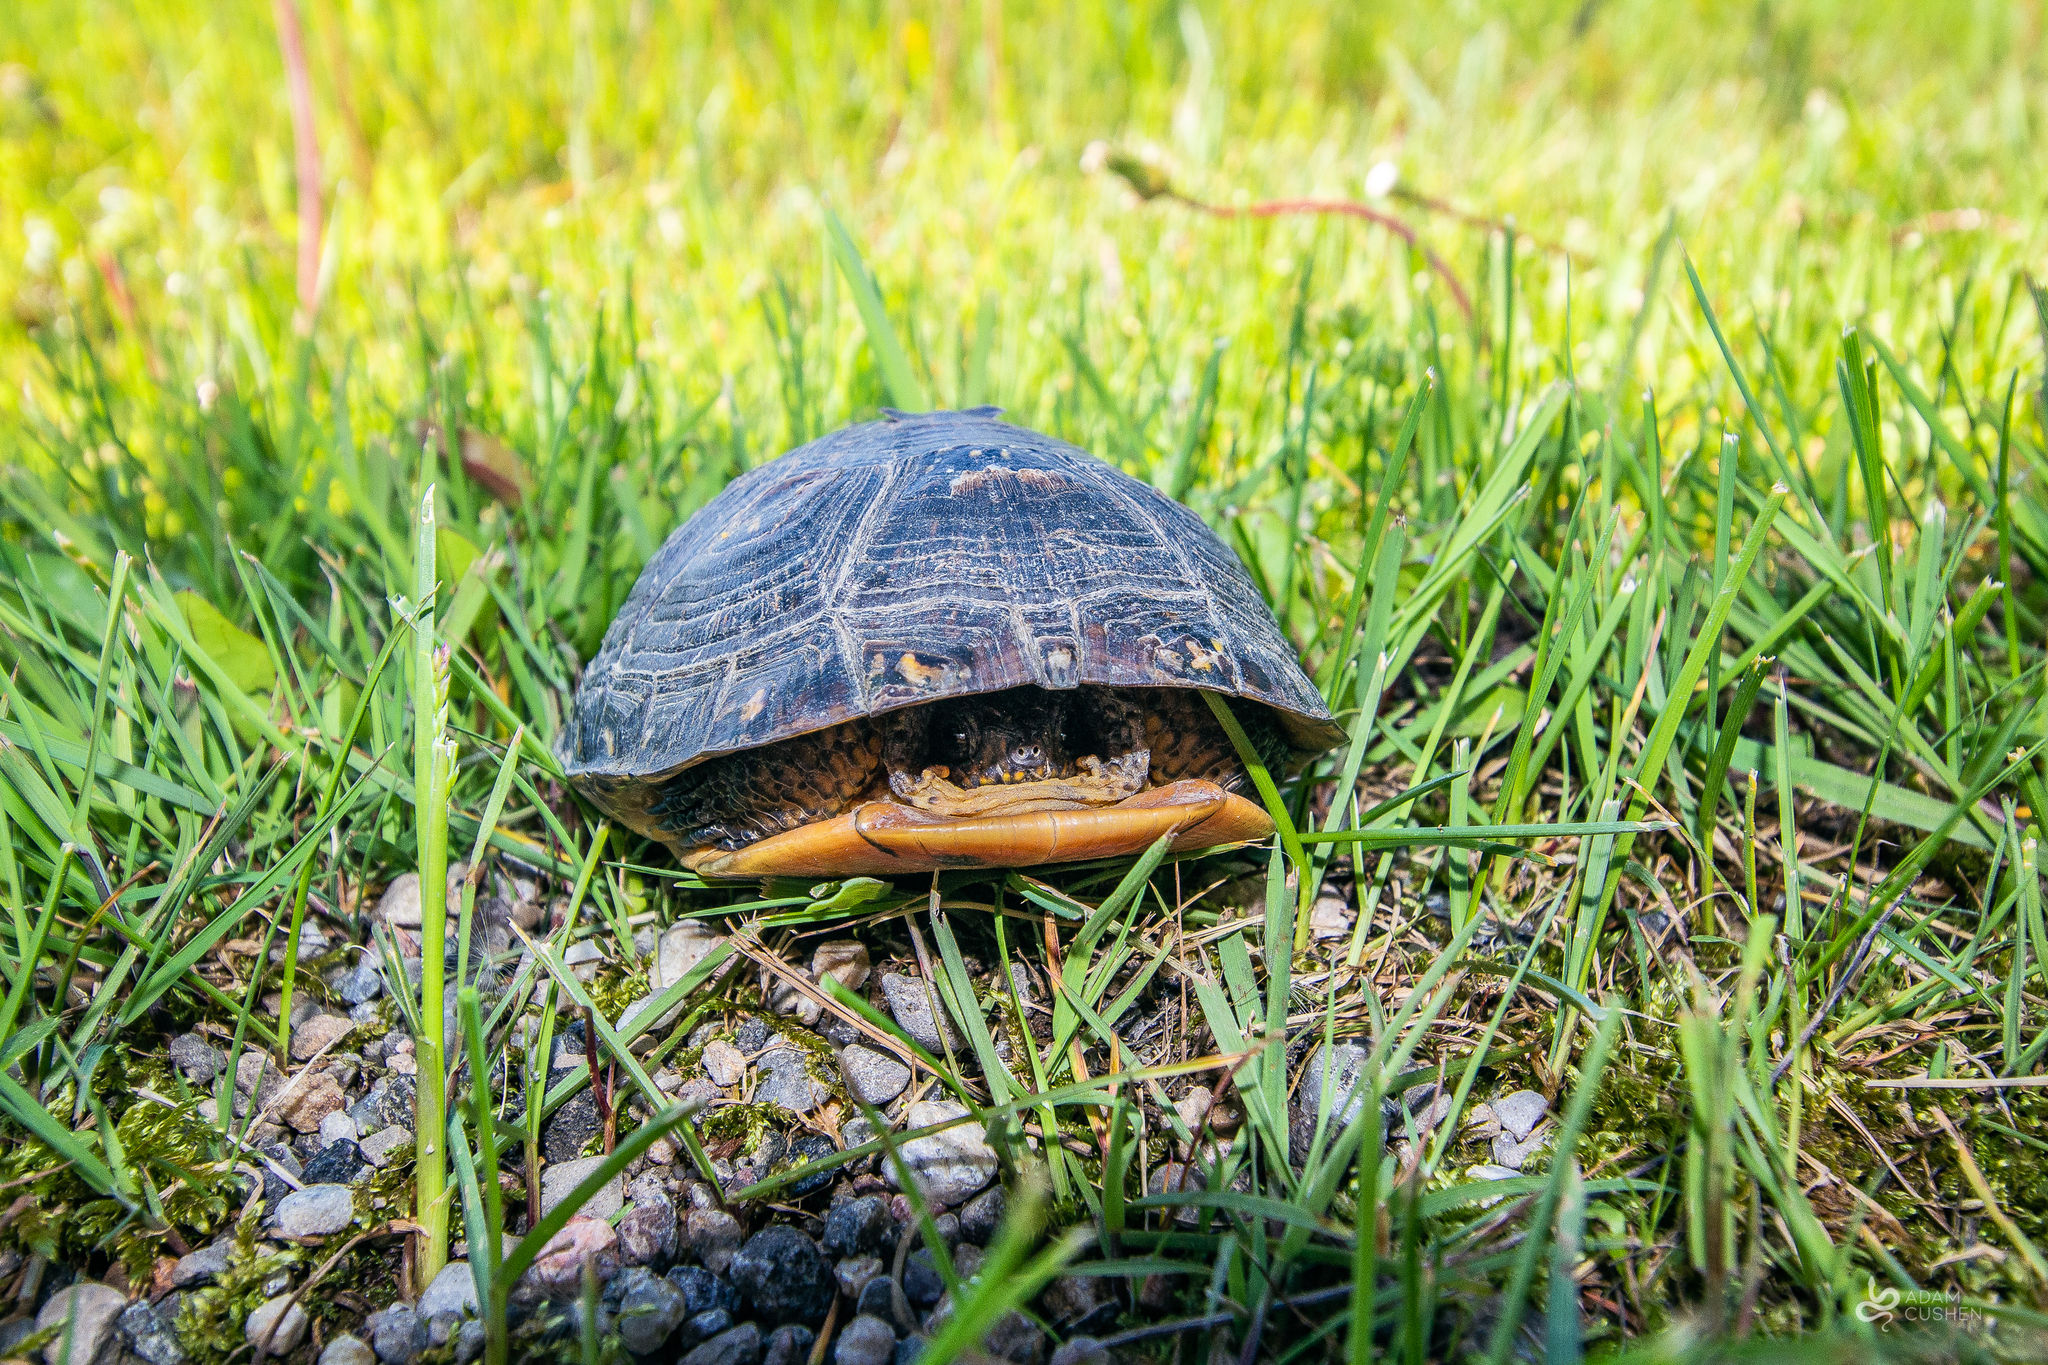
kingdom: Animalia
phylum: Chordata
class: Testudines
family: Emydidae
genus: Emys
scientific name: Emys blandingii
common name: Blanding's turtle
